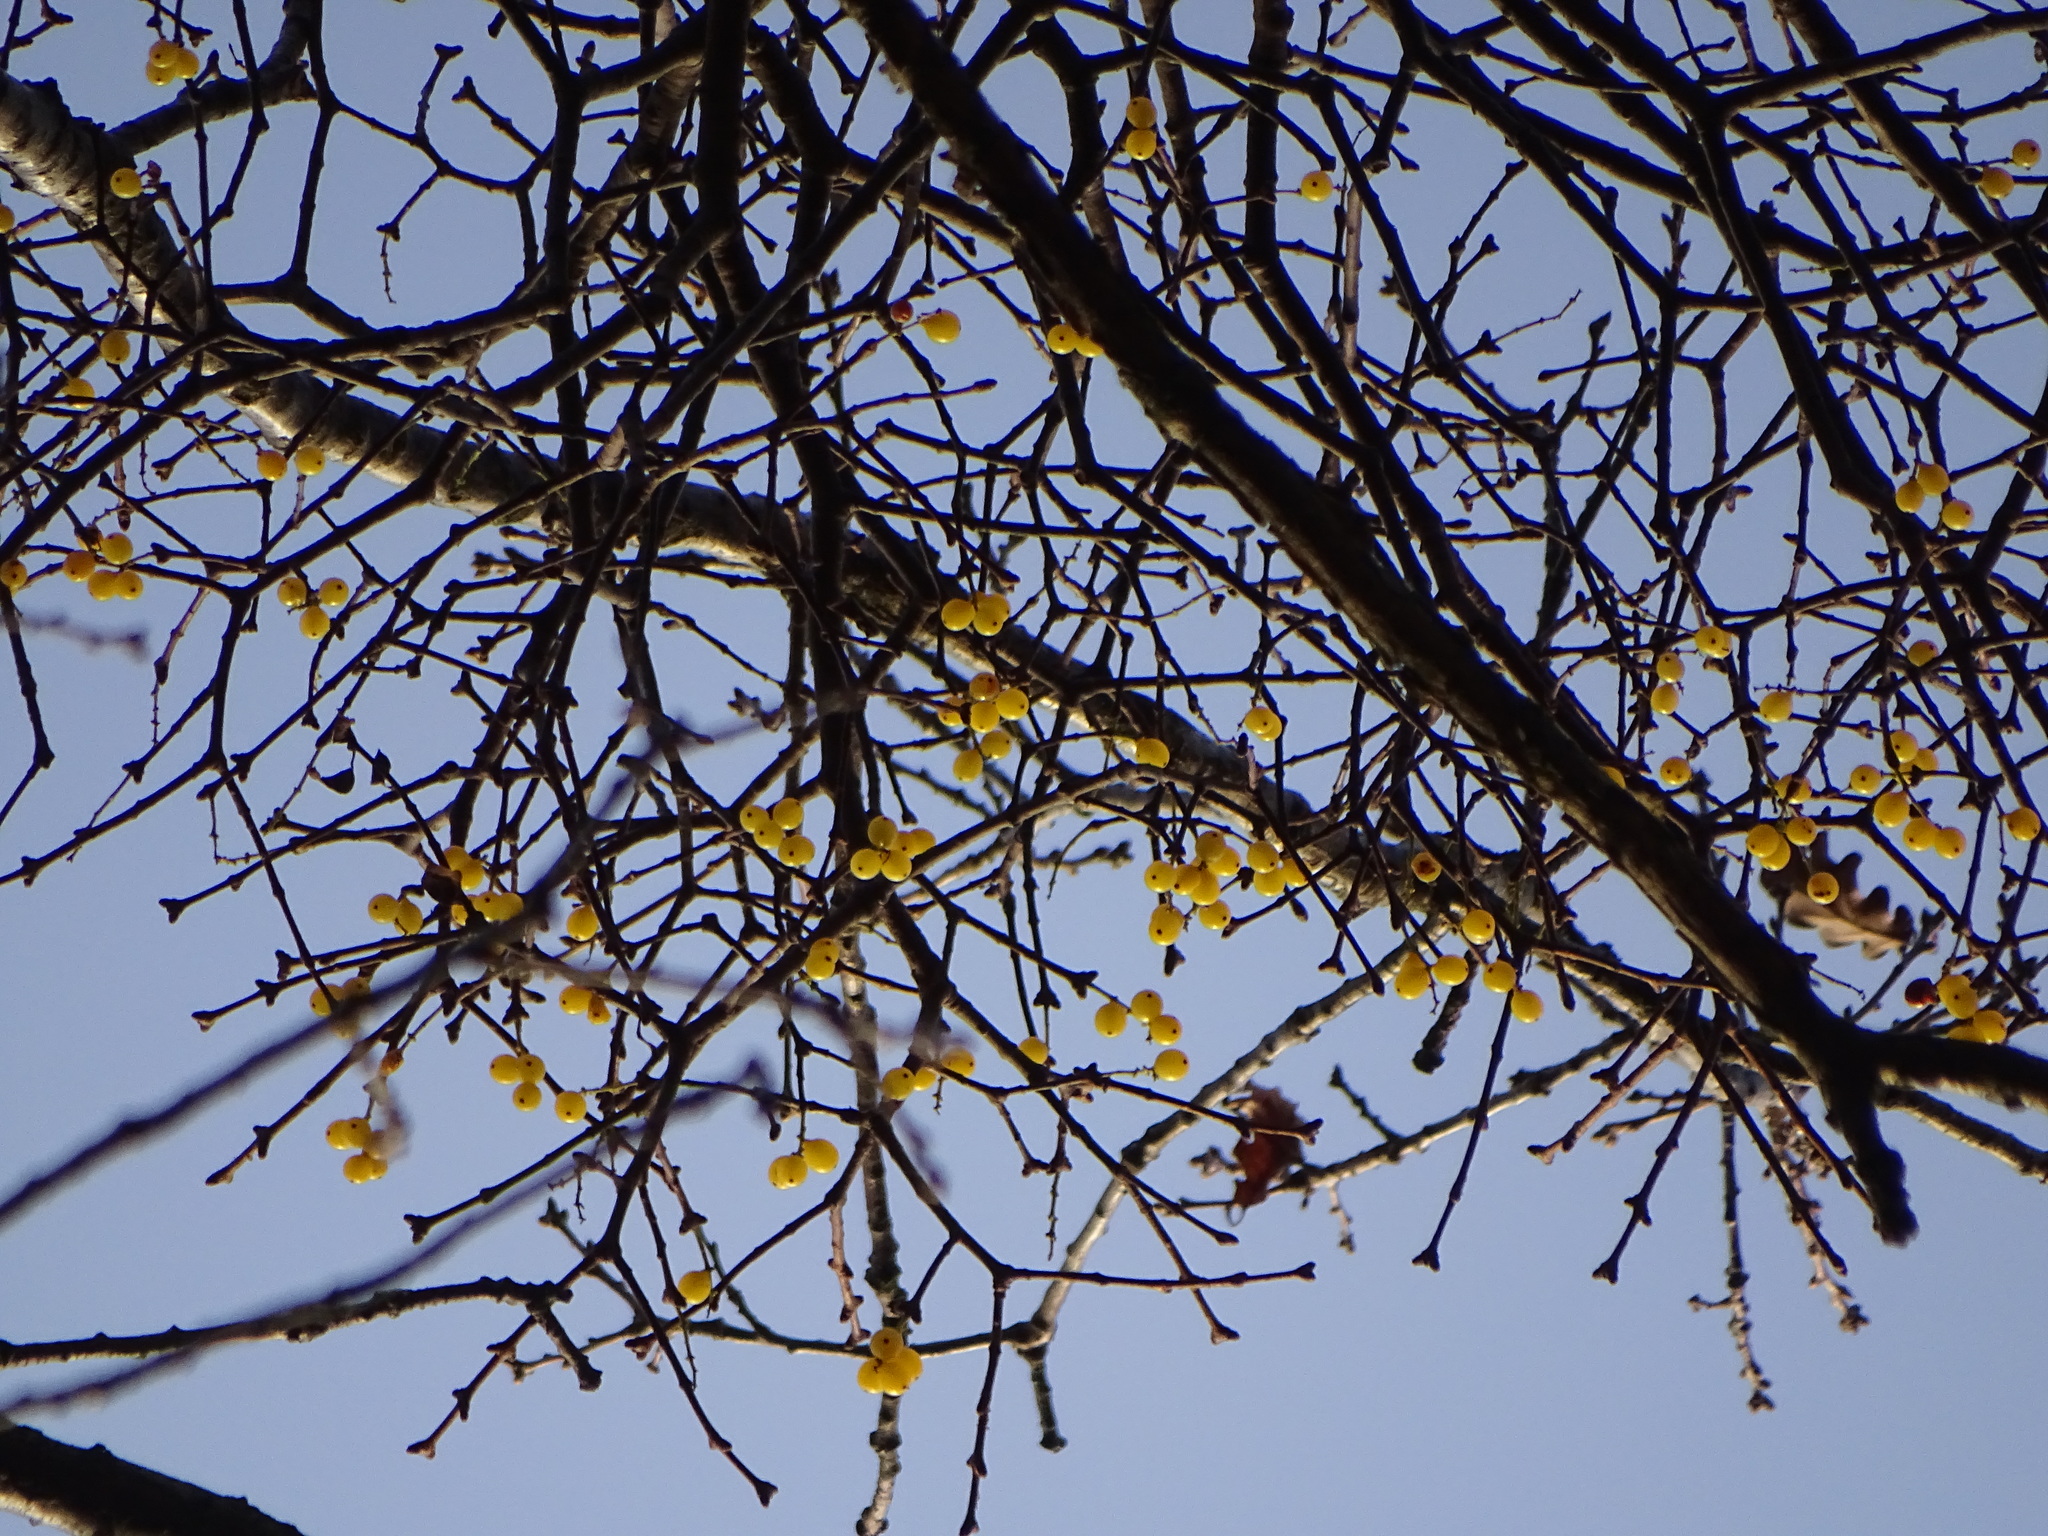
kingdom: Plantae
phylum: Tracheophyta
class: Magnoliopsida
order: Santalales
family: Loranthaceae
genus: Loranthus
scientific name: Loranthus europaeus
